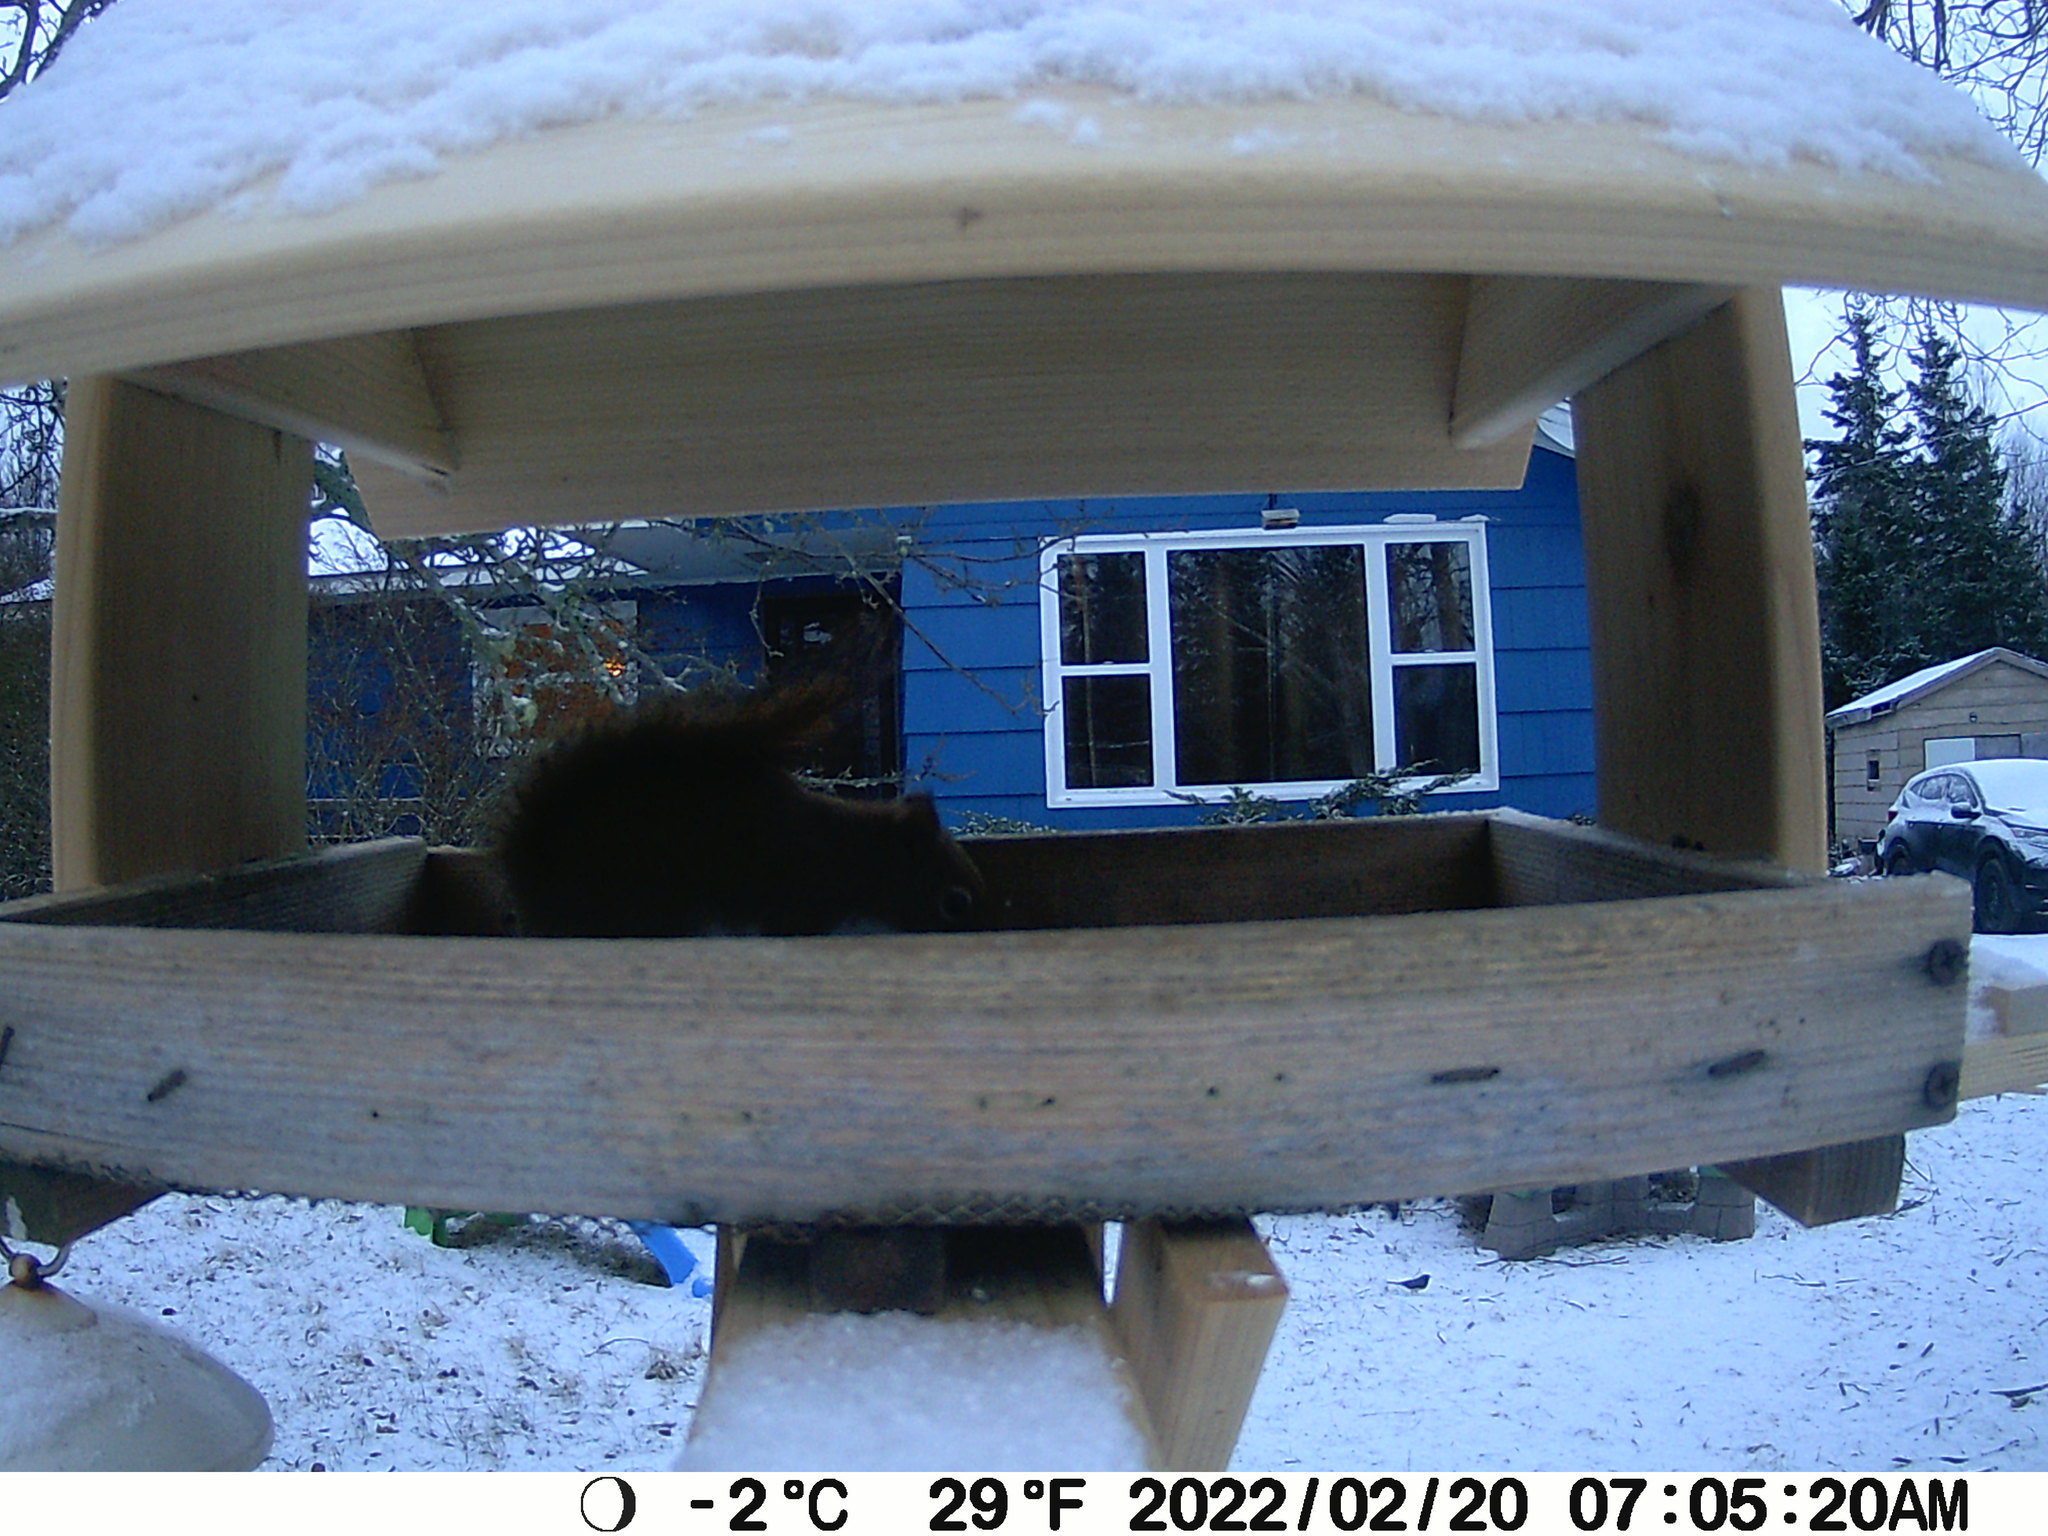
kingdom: Animalia
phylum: Chordata
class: Aves
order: Passeriformes
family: Passerellidae
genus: Junco
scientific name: Junco hyemalis
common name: Dark-eyed junco
